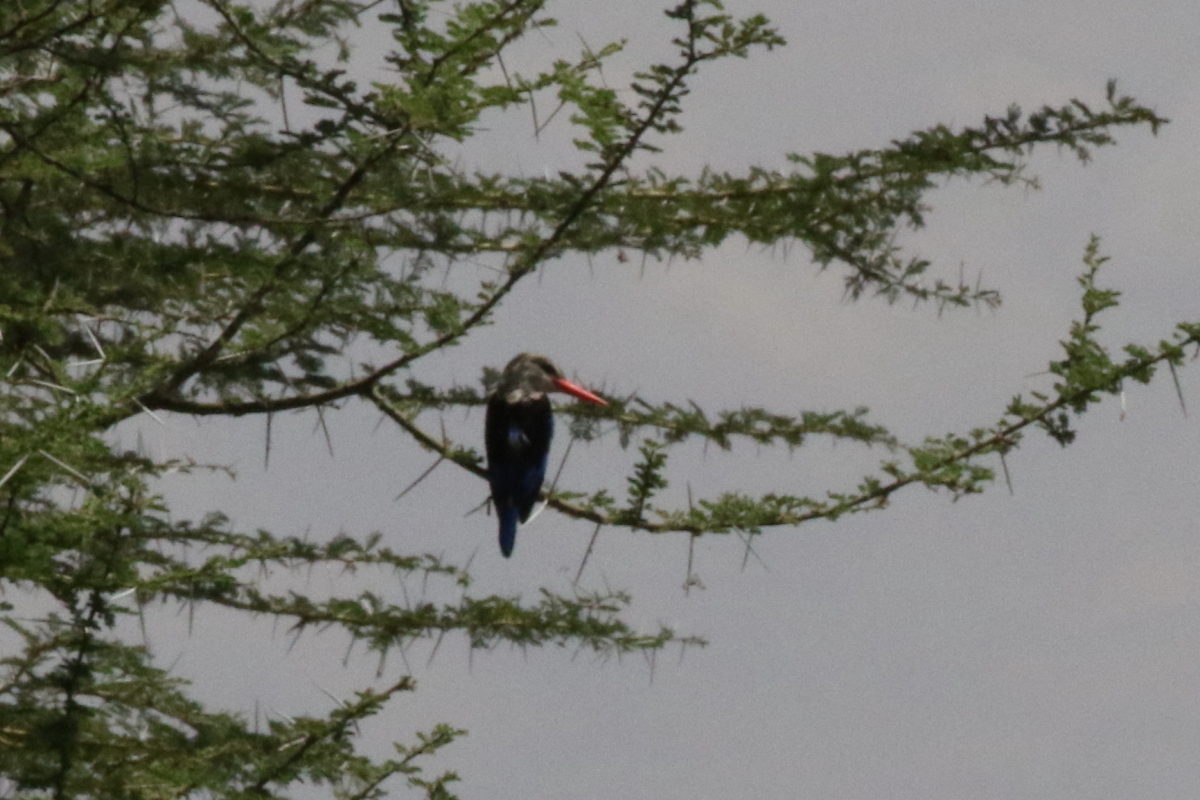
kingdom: Animalia
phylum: Chordata
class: Aves
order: Coraciiformes
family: Alcedinidae
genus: Halcyon
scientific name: Halcyon leucocephala
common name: Grey-headed kingfisher
